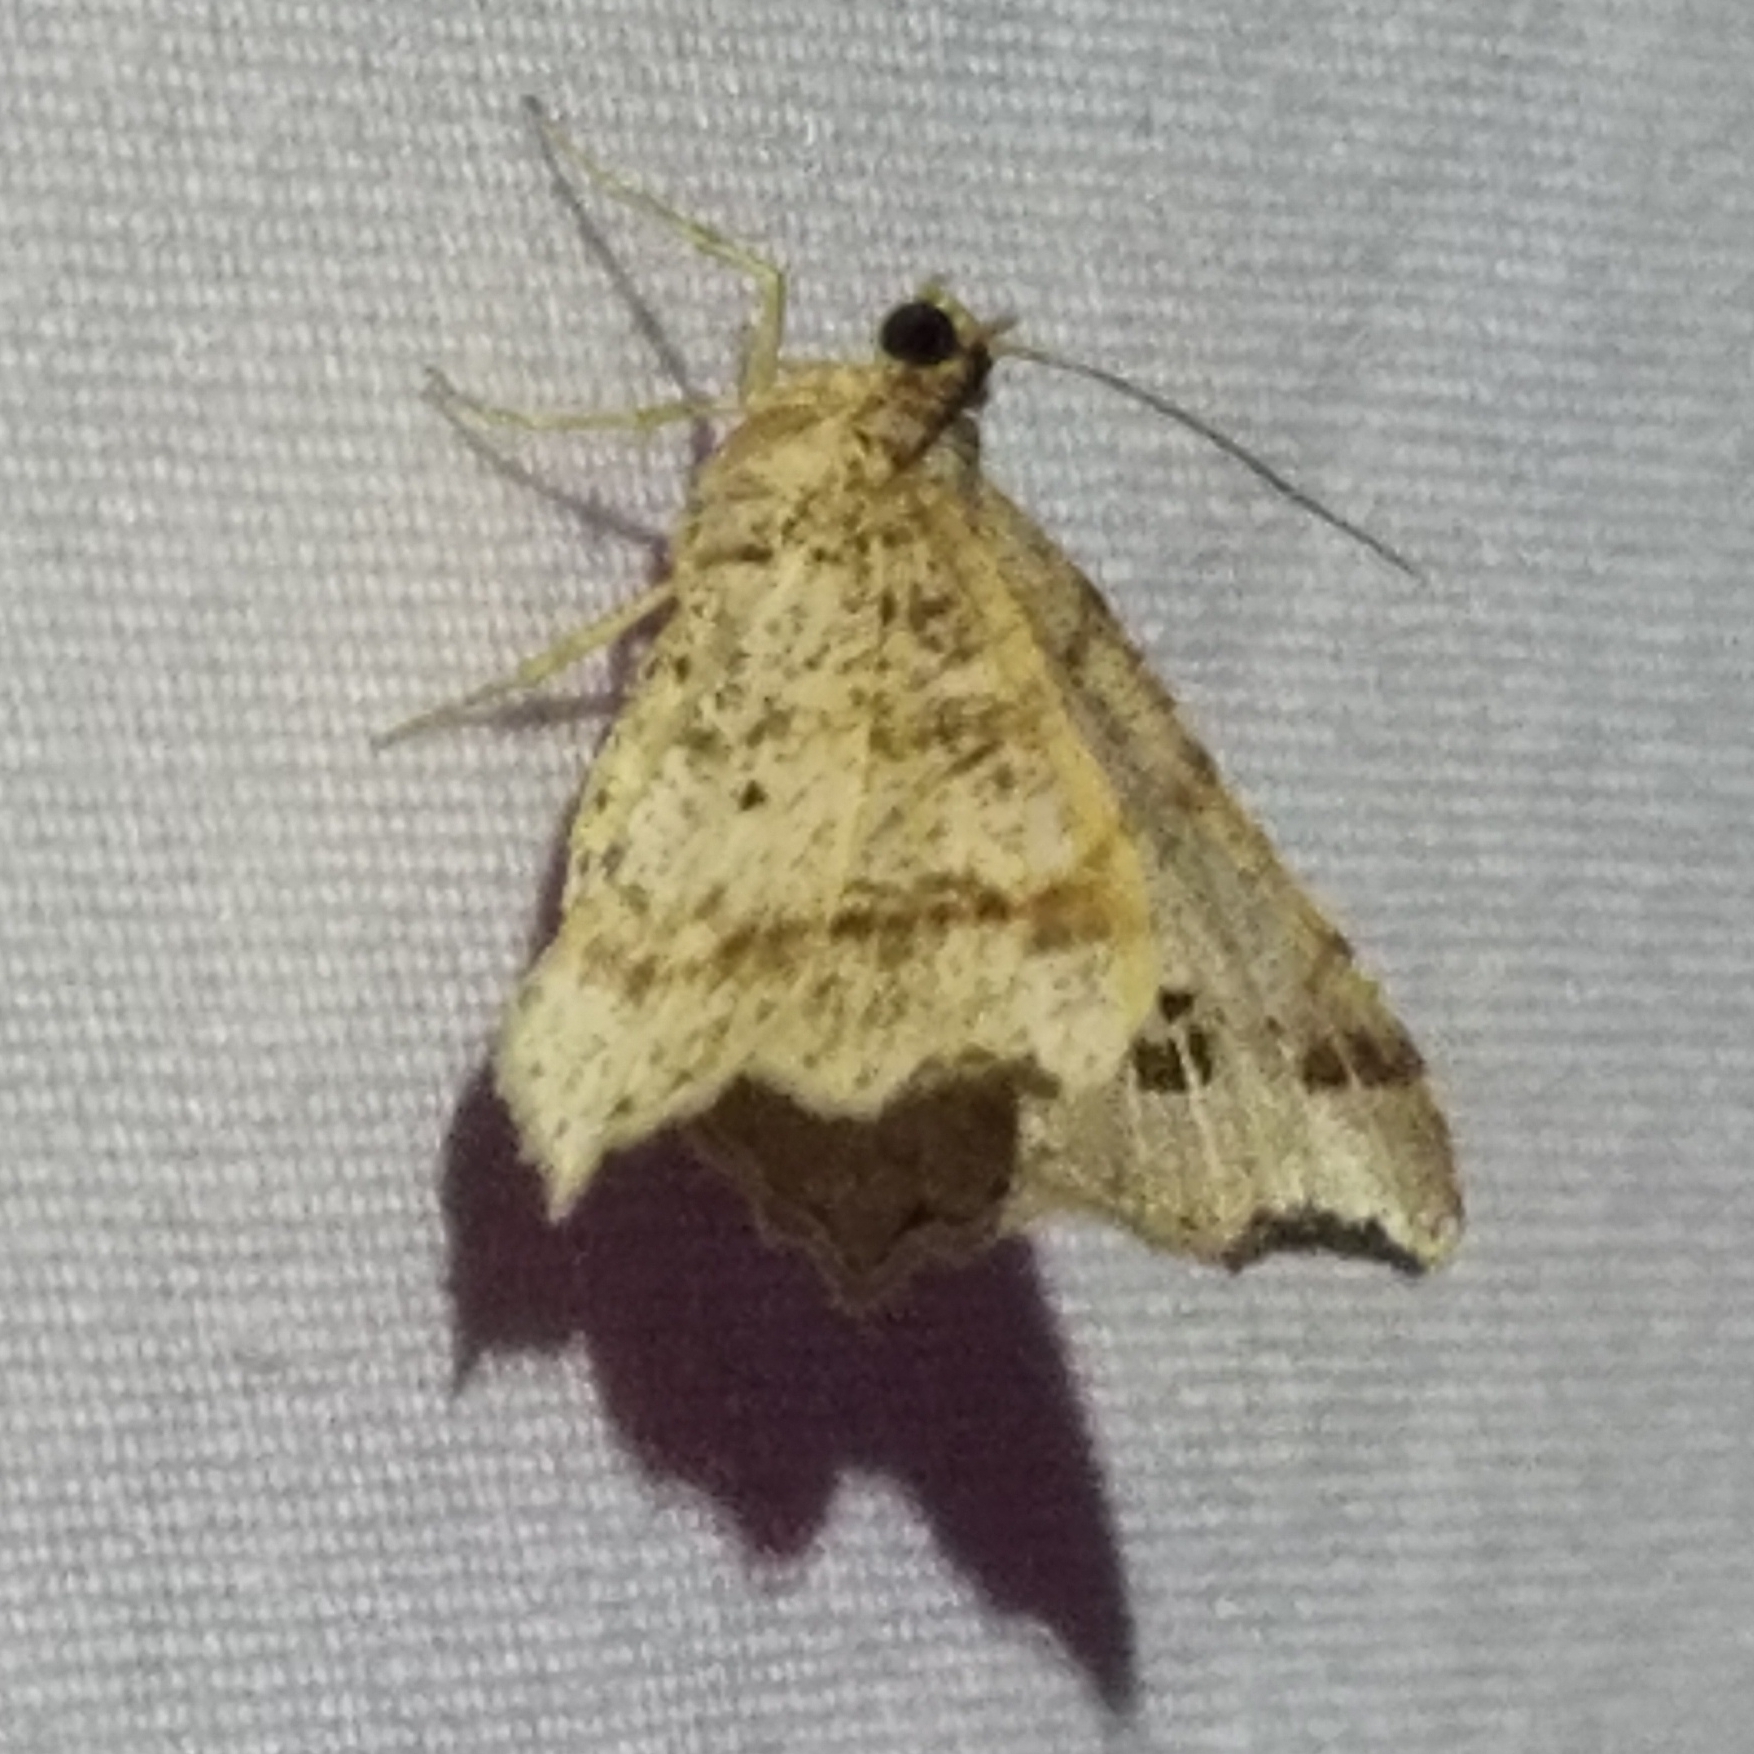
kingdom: Animalia
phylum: Arthropoda
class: Insecta
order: Lepidoptera
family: Geometridae
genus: Macaria
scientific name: Macaria aemulataria
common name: Common angle
